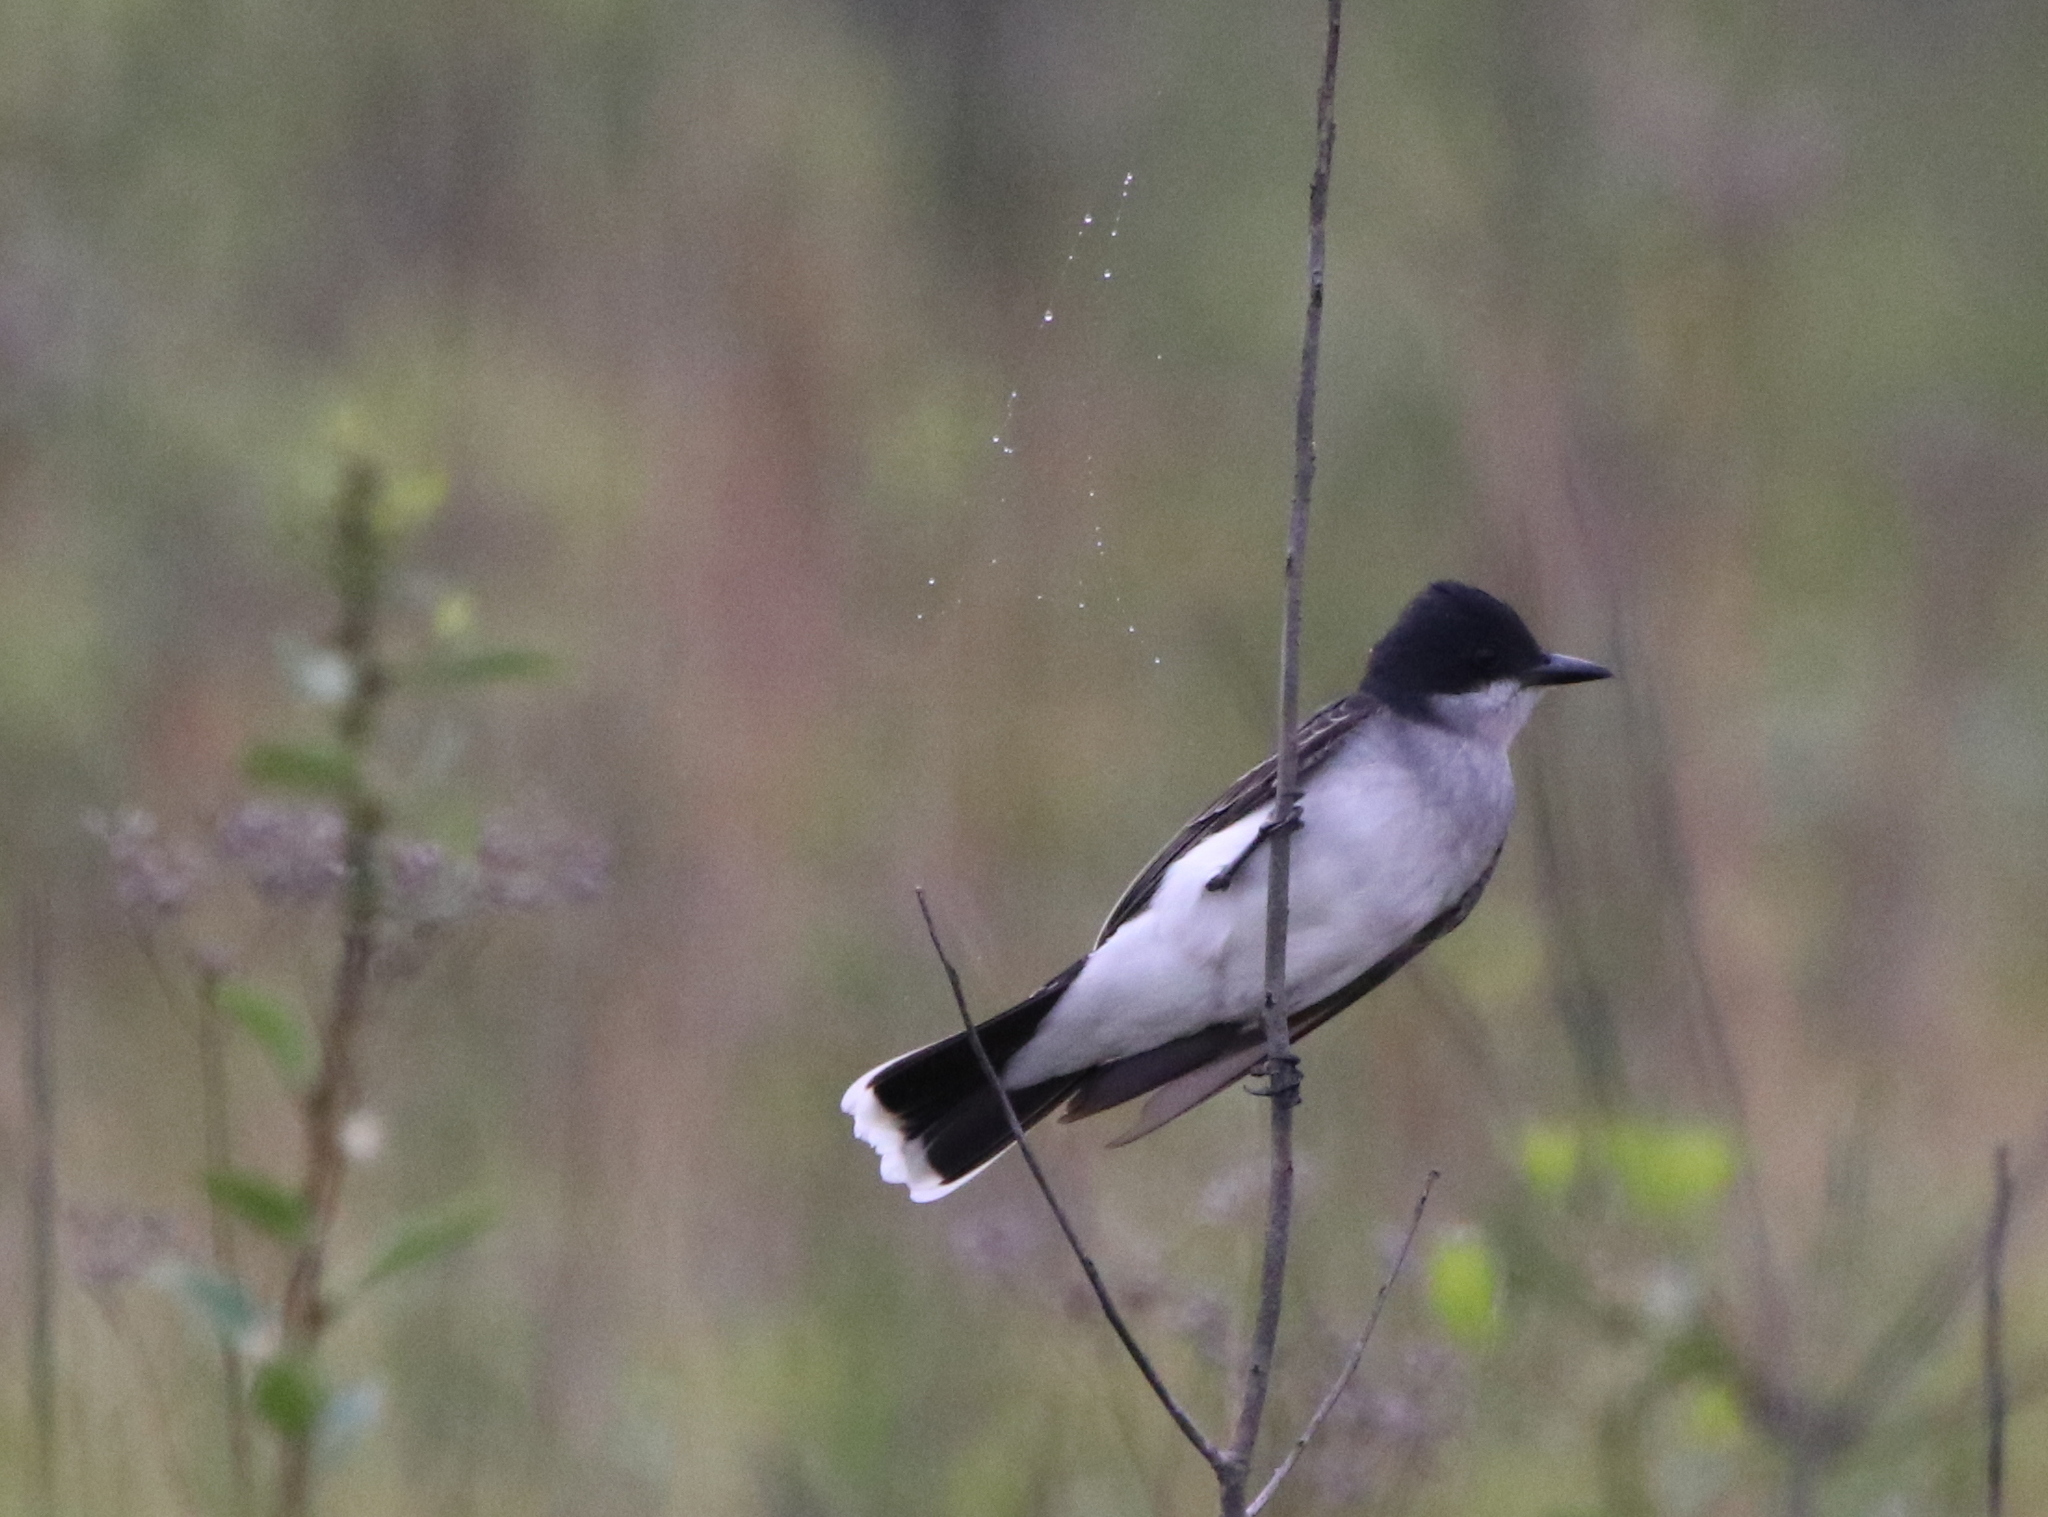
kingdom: Animalia
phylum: Chordata
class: Aves
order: Passeriformes
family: Tyrannidae
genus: Tyrannus
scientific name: Tyrannus tyrannus
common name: Eastern kingbird
